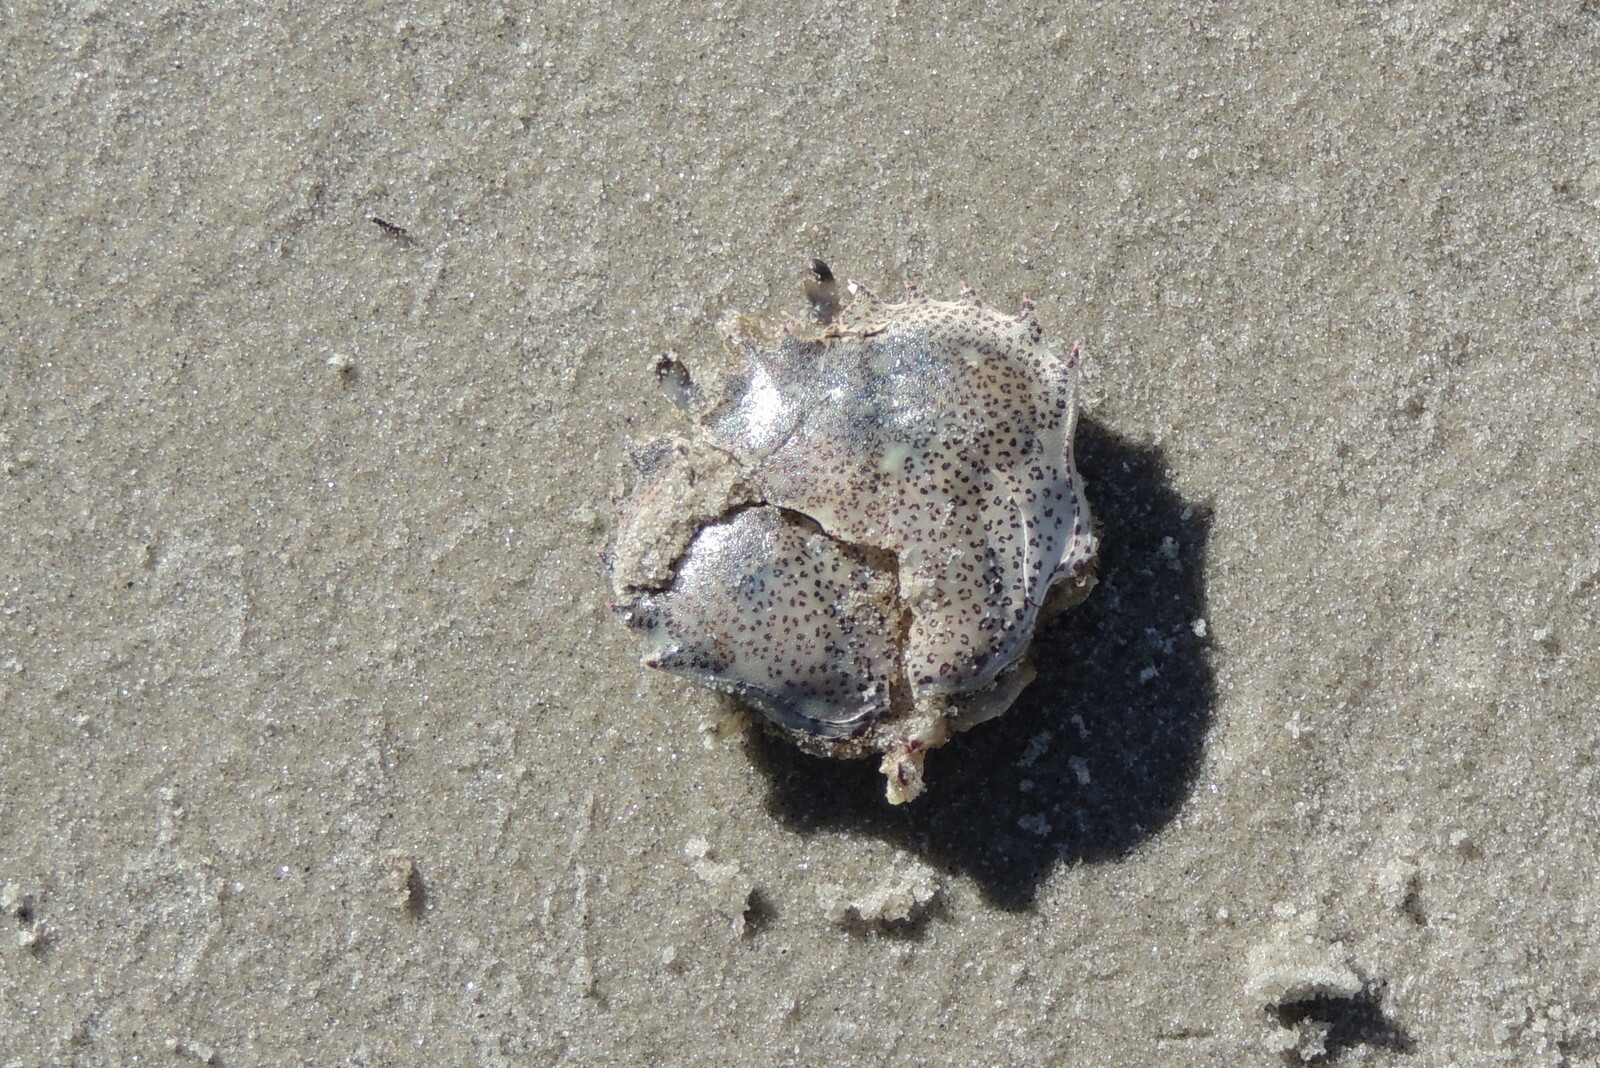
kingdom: Animalia
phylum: Arthropoda
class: Malacostraca
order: Decapoda
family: Ovalipidae
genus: Ovalipes
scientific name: Ovalipes ocellatus
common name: Lady crab
